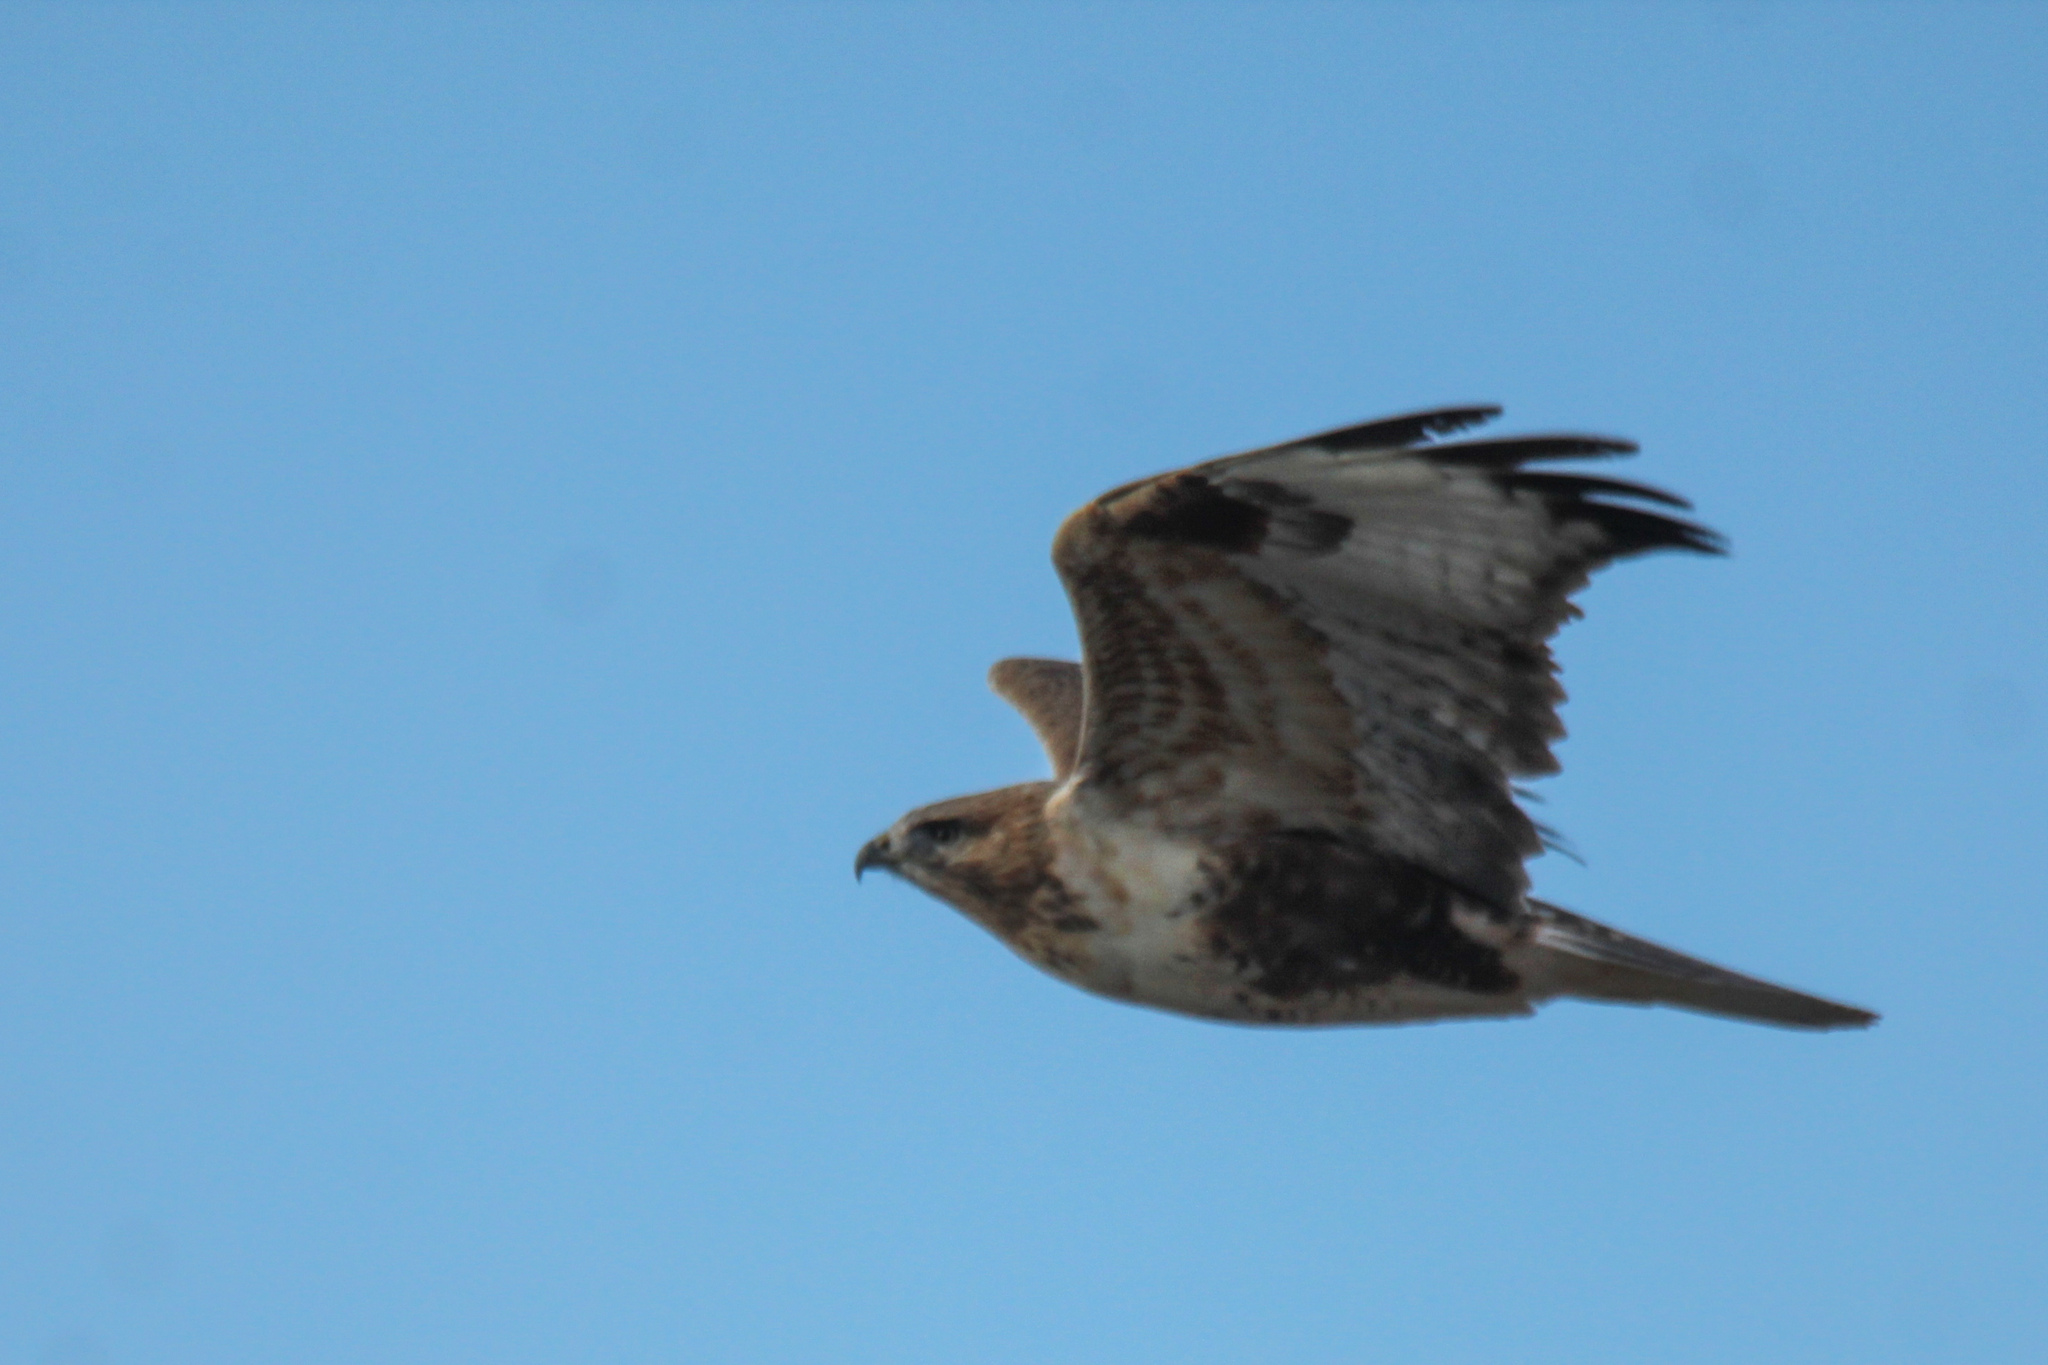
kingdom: Animalia
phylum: Chordata
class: Aves
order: Accipitriformes
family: Accipitridae
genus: Buteo
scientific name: Buteo hemilasius
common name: Upland buzzard
